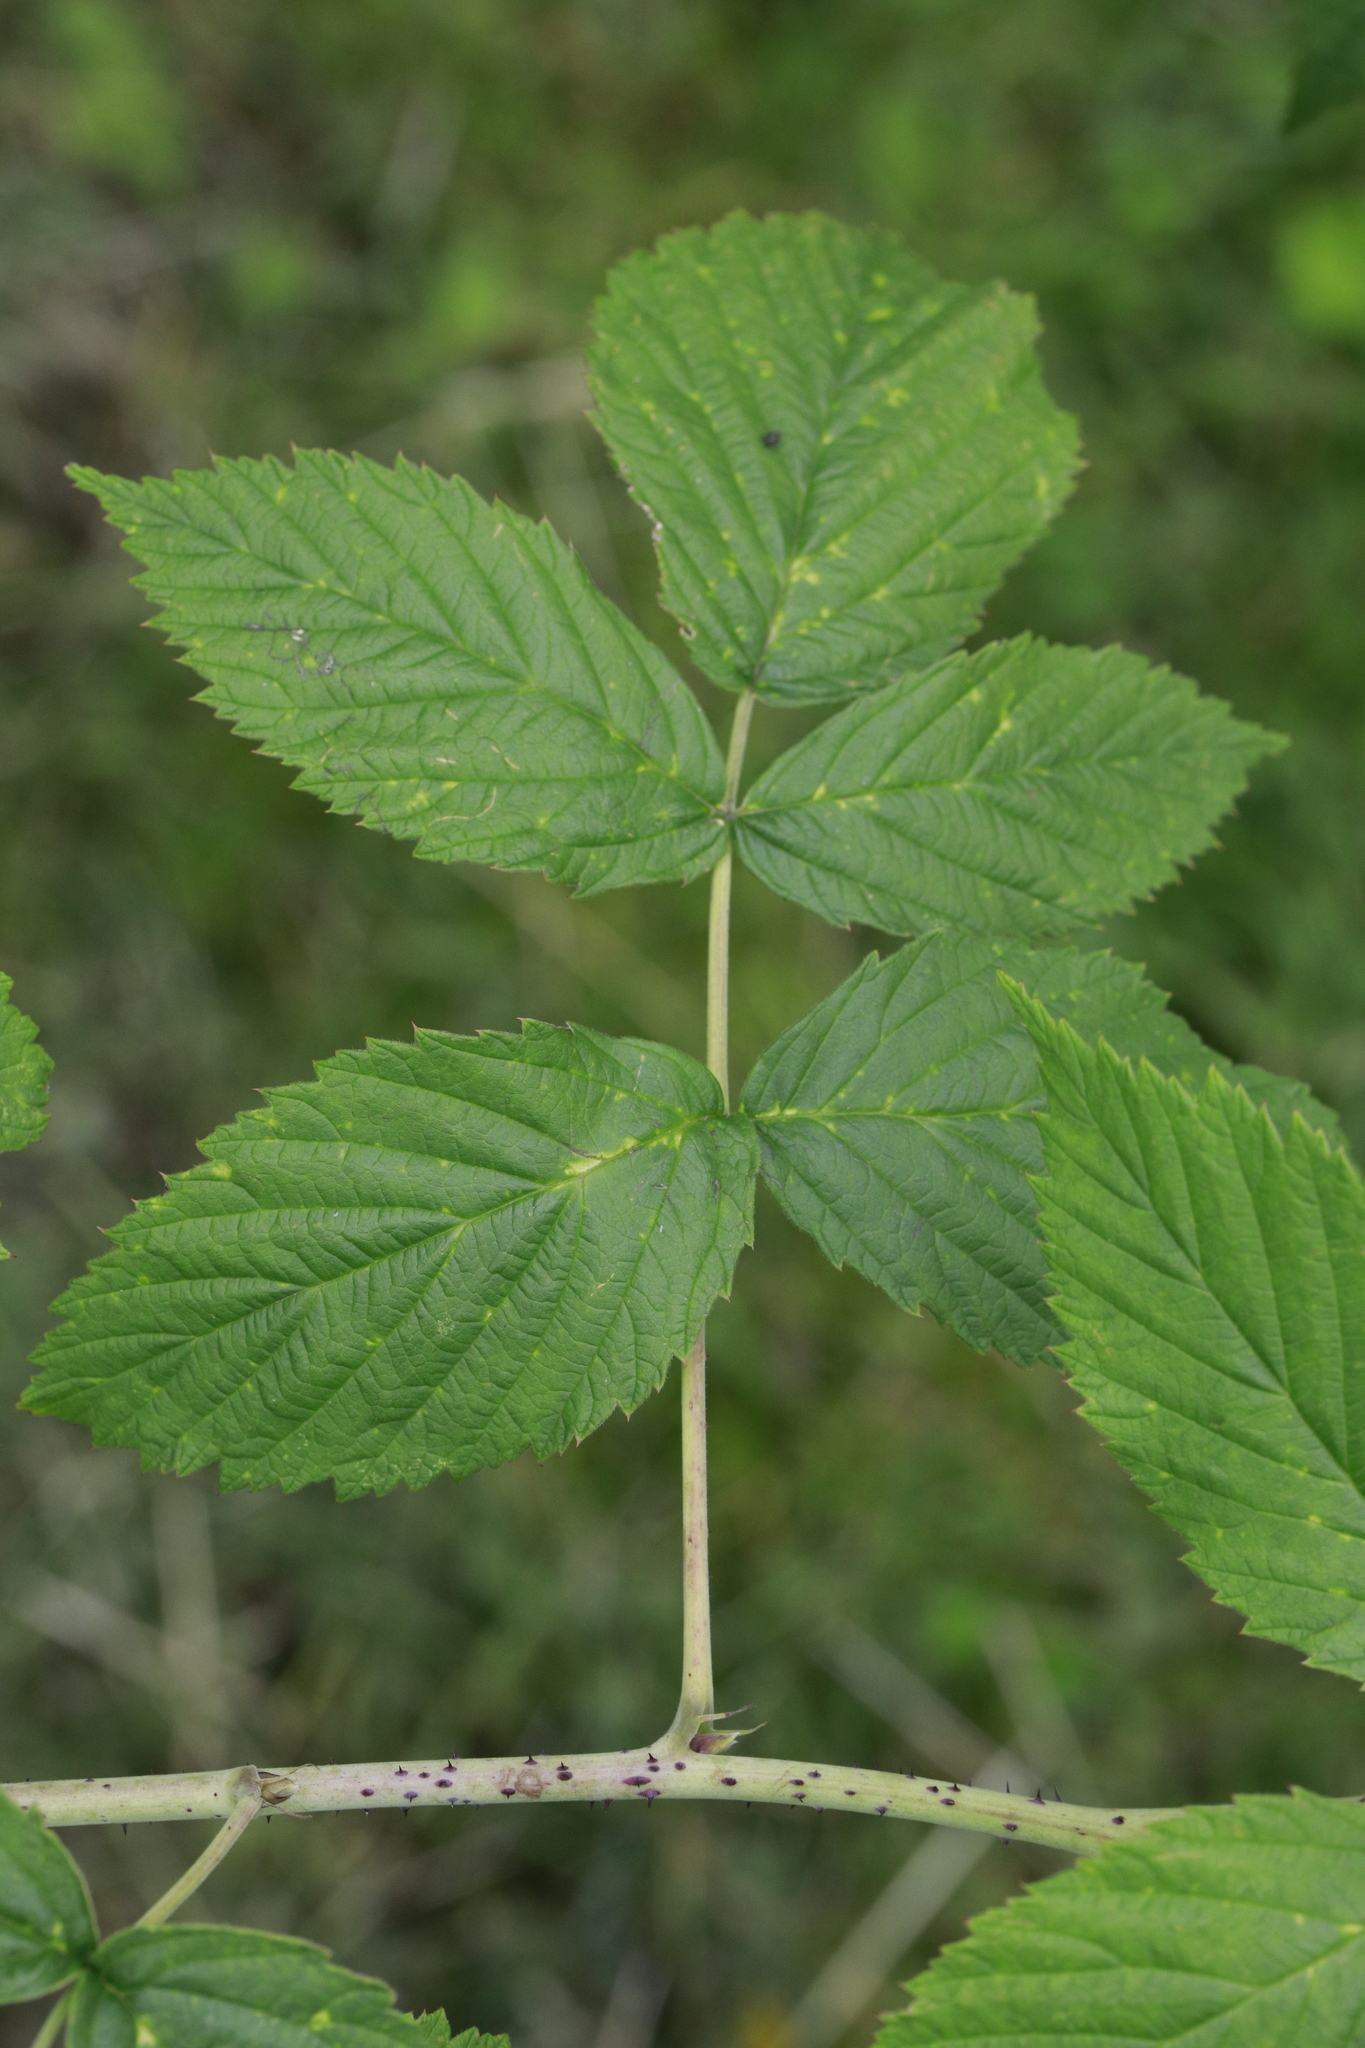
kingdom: Plantae
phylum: Tracheophyta
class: Magnoliopsida
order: Rosales
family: Rosaceae
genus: Rubus
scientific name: Rubus idaeus
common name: Raspberry
